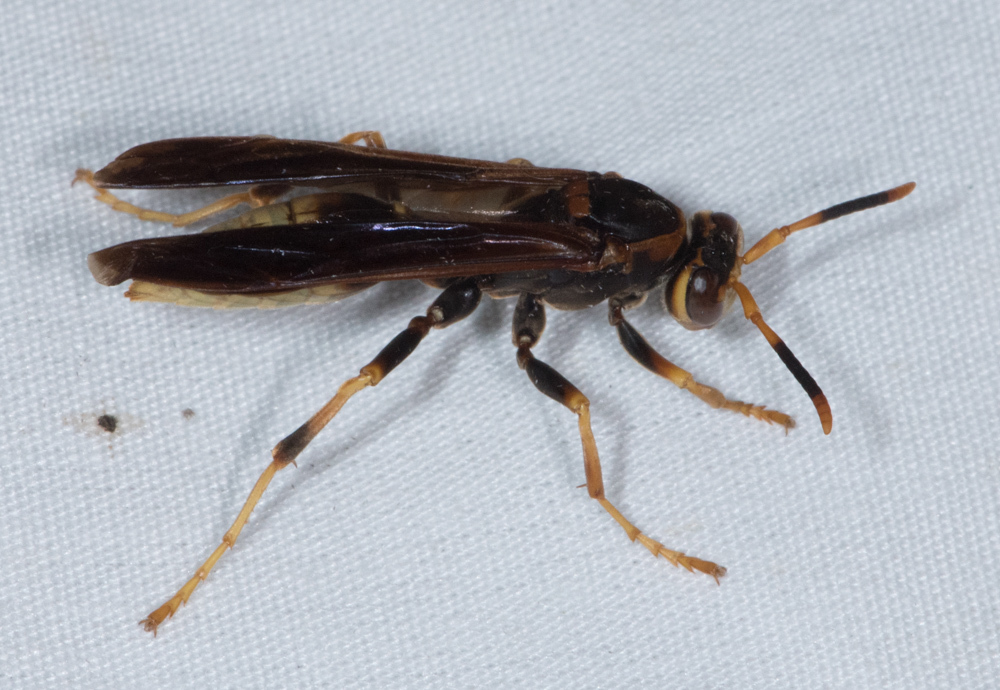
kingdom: Animalia
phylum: Arthropoda
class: Insecta
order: Hymenoptera
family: Eumenidae
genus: Polistes
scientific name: Polistes comanchus
